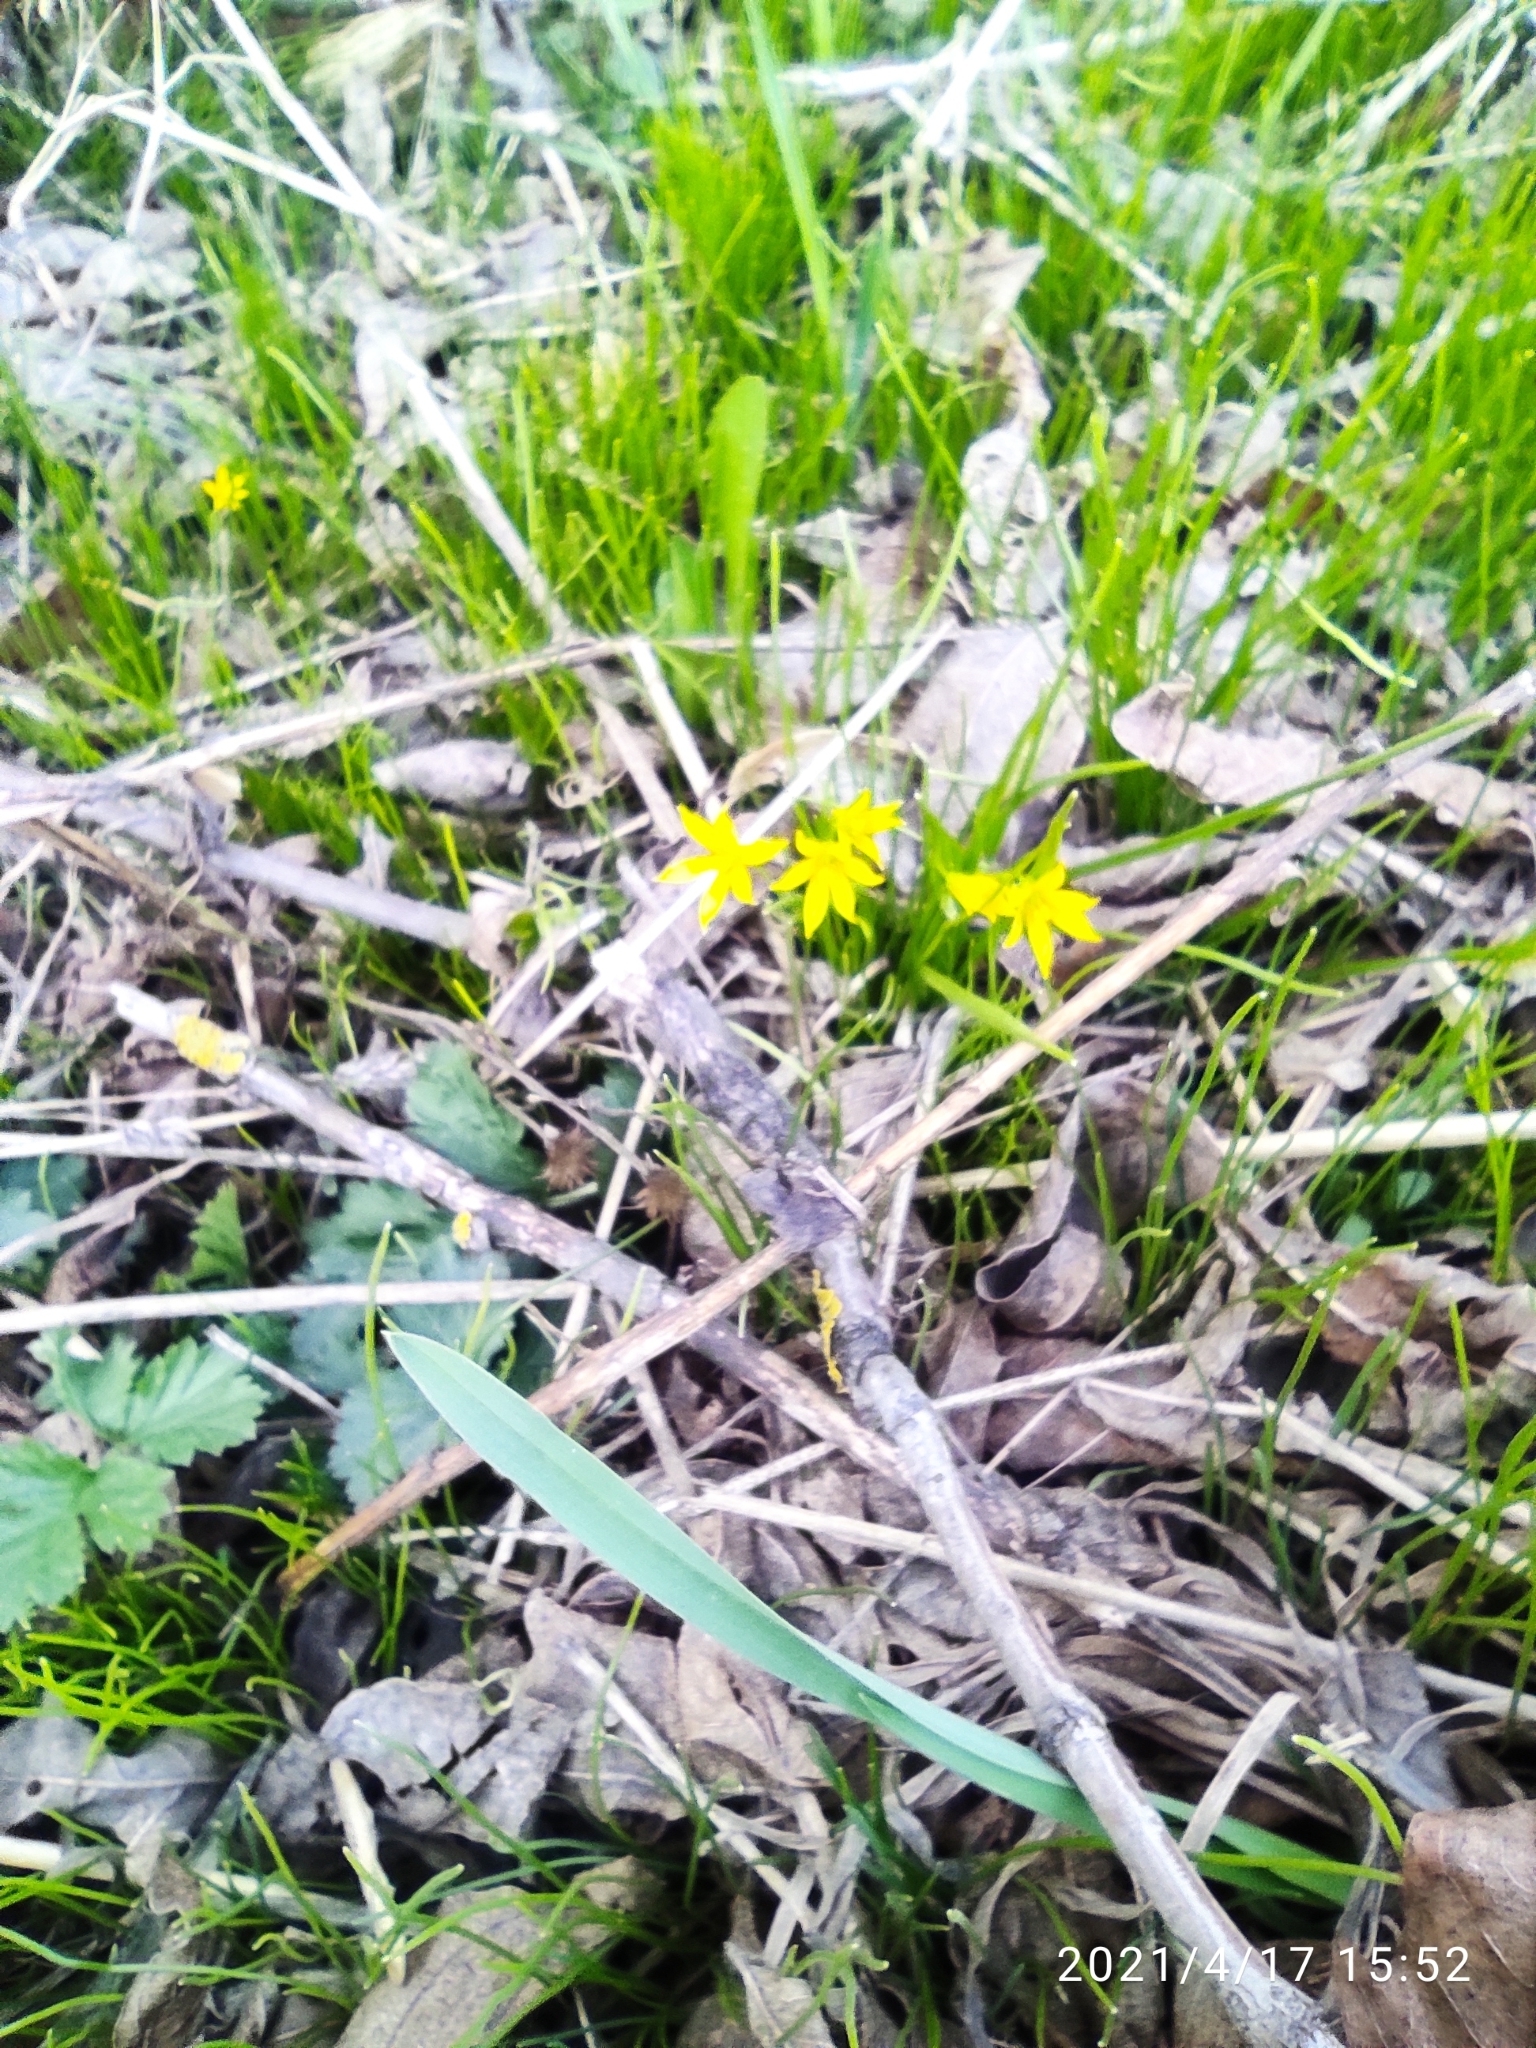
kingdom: Plantae
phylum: Tracheophyta
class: Liliopsida
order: Liliales
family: Liliaceae
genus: Gagea
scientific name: Gagea minima
